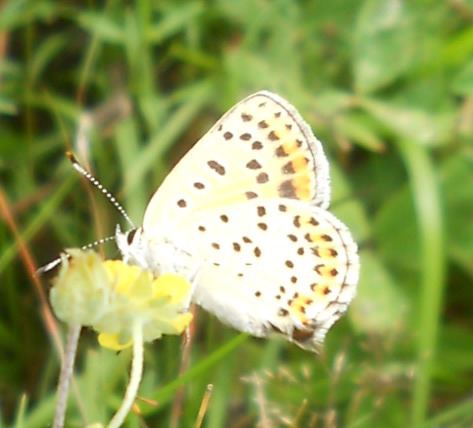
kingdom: Animalia
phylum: Arthropoda
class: Insecta
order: Lepidoptera
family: Lycaenidae
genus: Loweia
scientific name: Loweia tityrus
